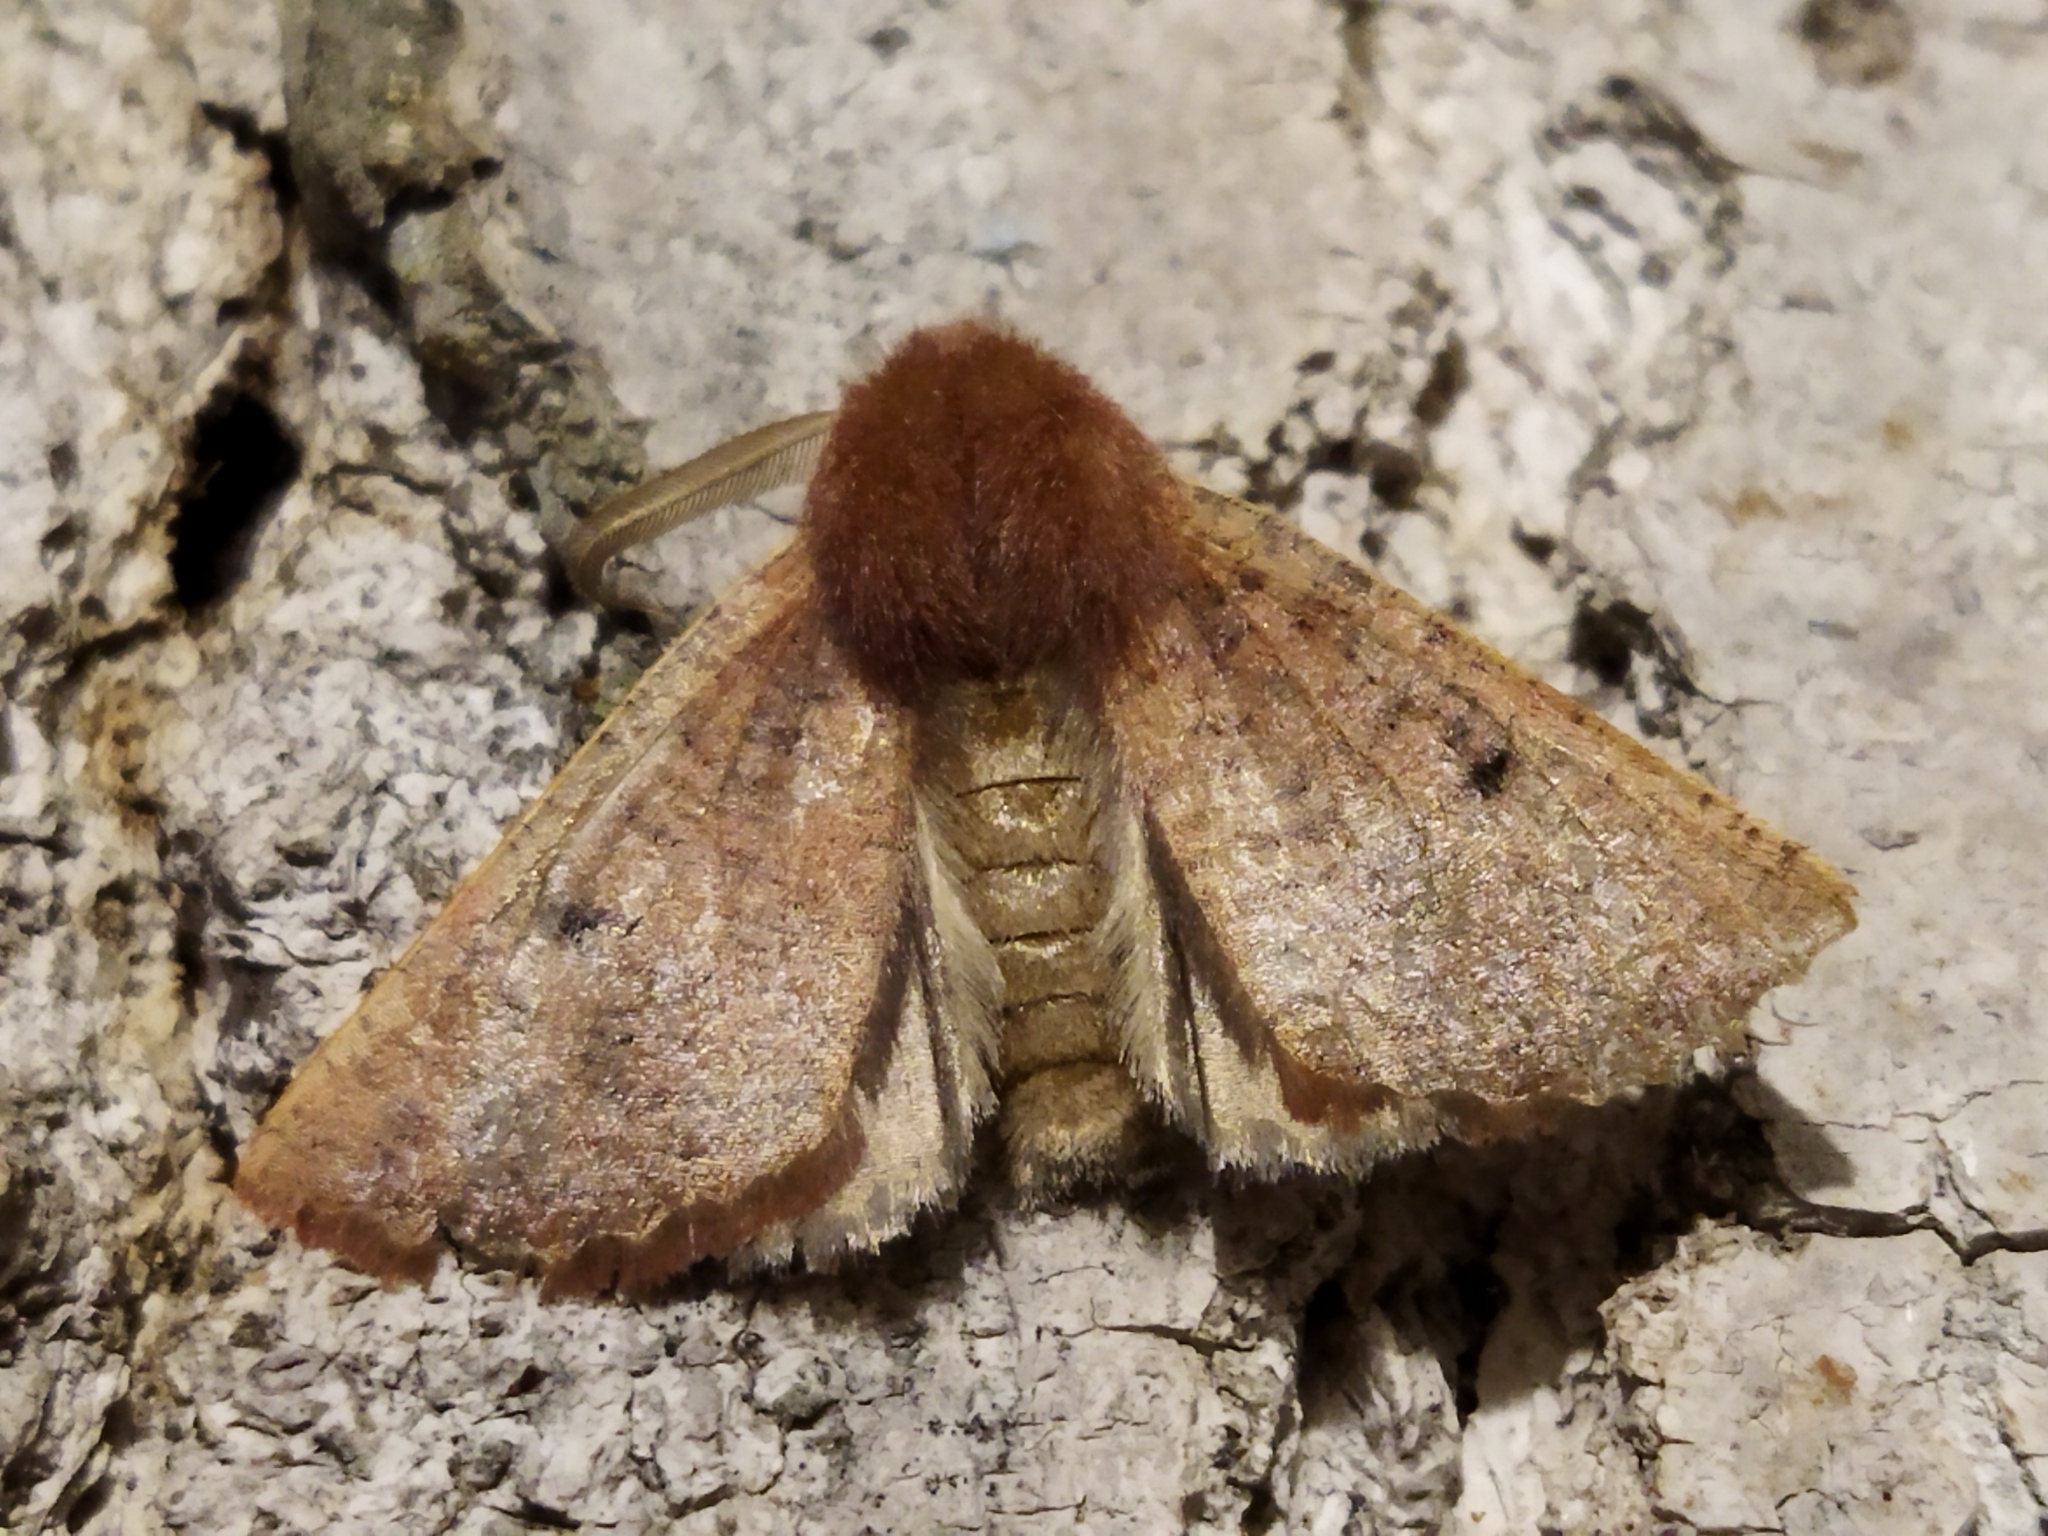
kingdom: Animalia
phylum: Arthropoda
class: Insecta
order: Lepidoptera
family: Geometridae
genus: Dasycorsa
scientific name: Dasycorsa modesta
